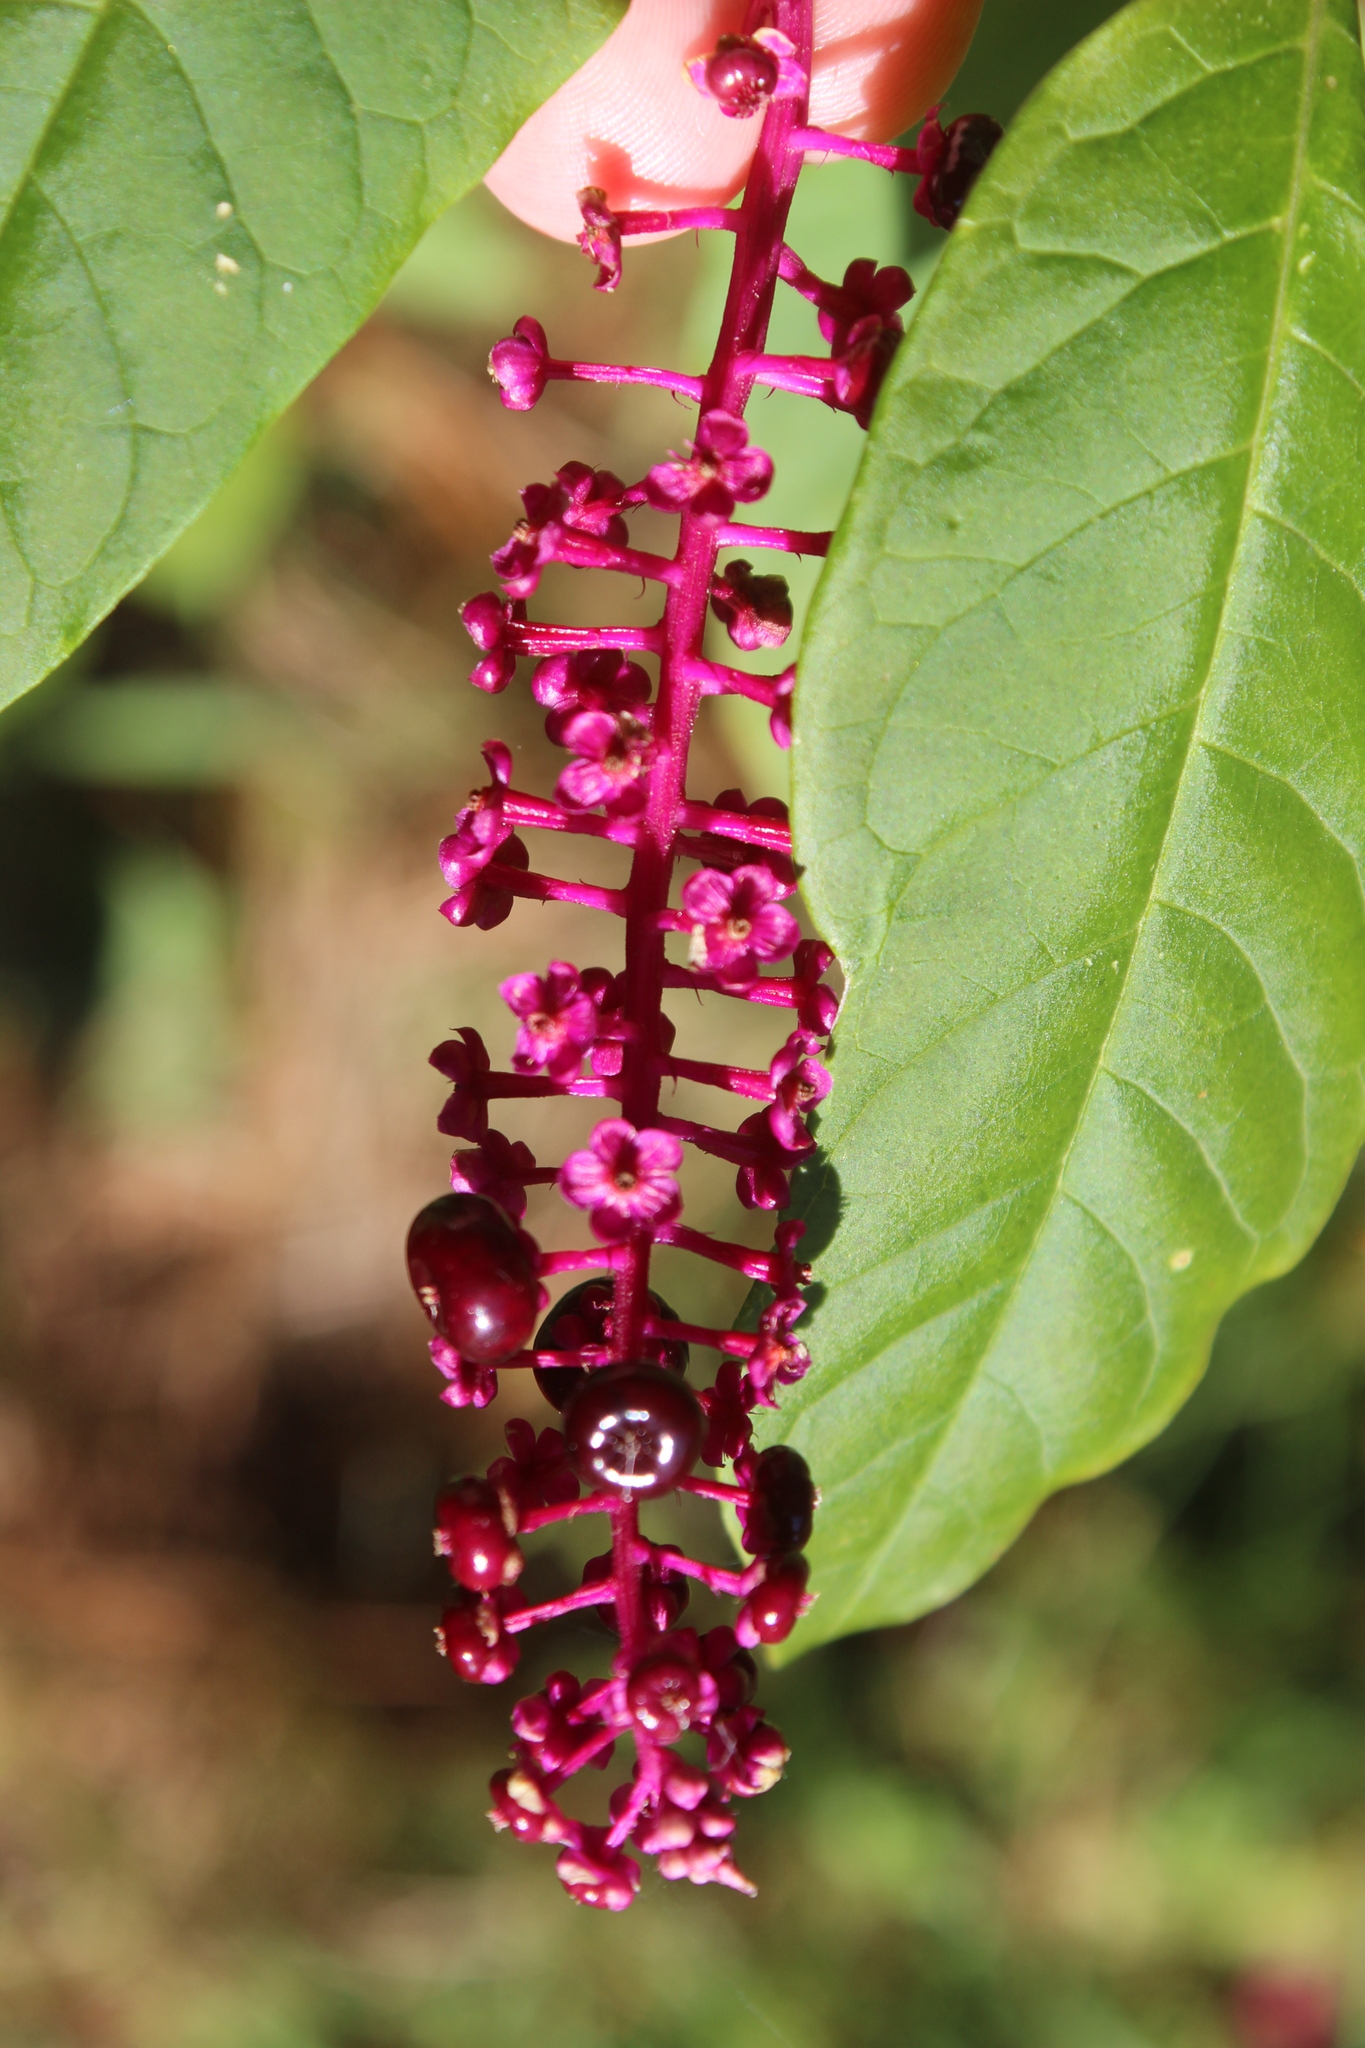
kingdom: Plantae
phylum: Tracheophyta
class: Magnoliopsida
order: Caryophyllales
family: Phytolaccaceae
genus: Phytolacca
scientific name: Phytolacca americana
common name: American pokeweed
